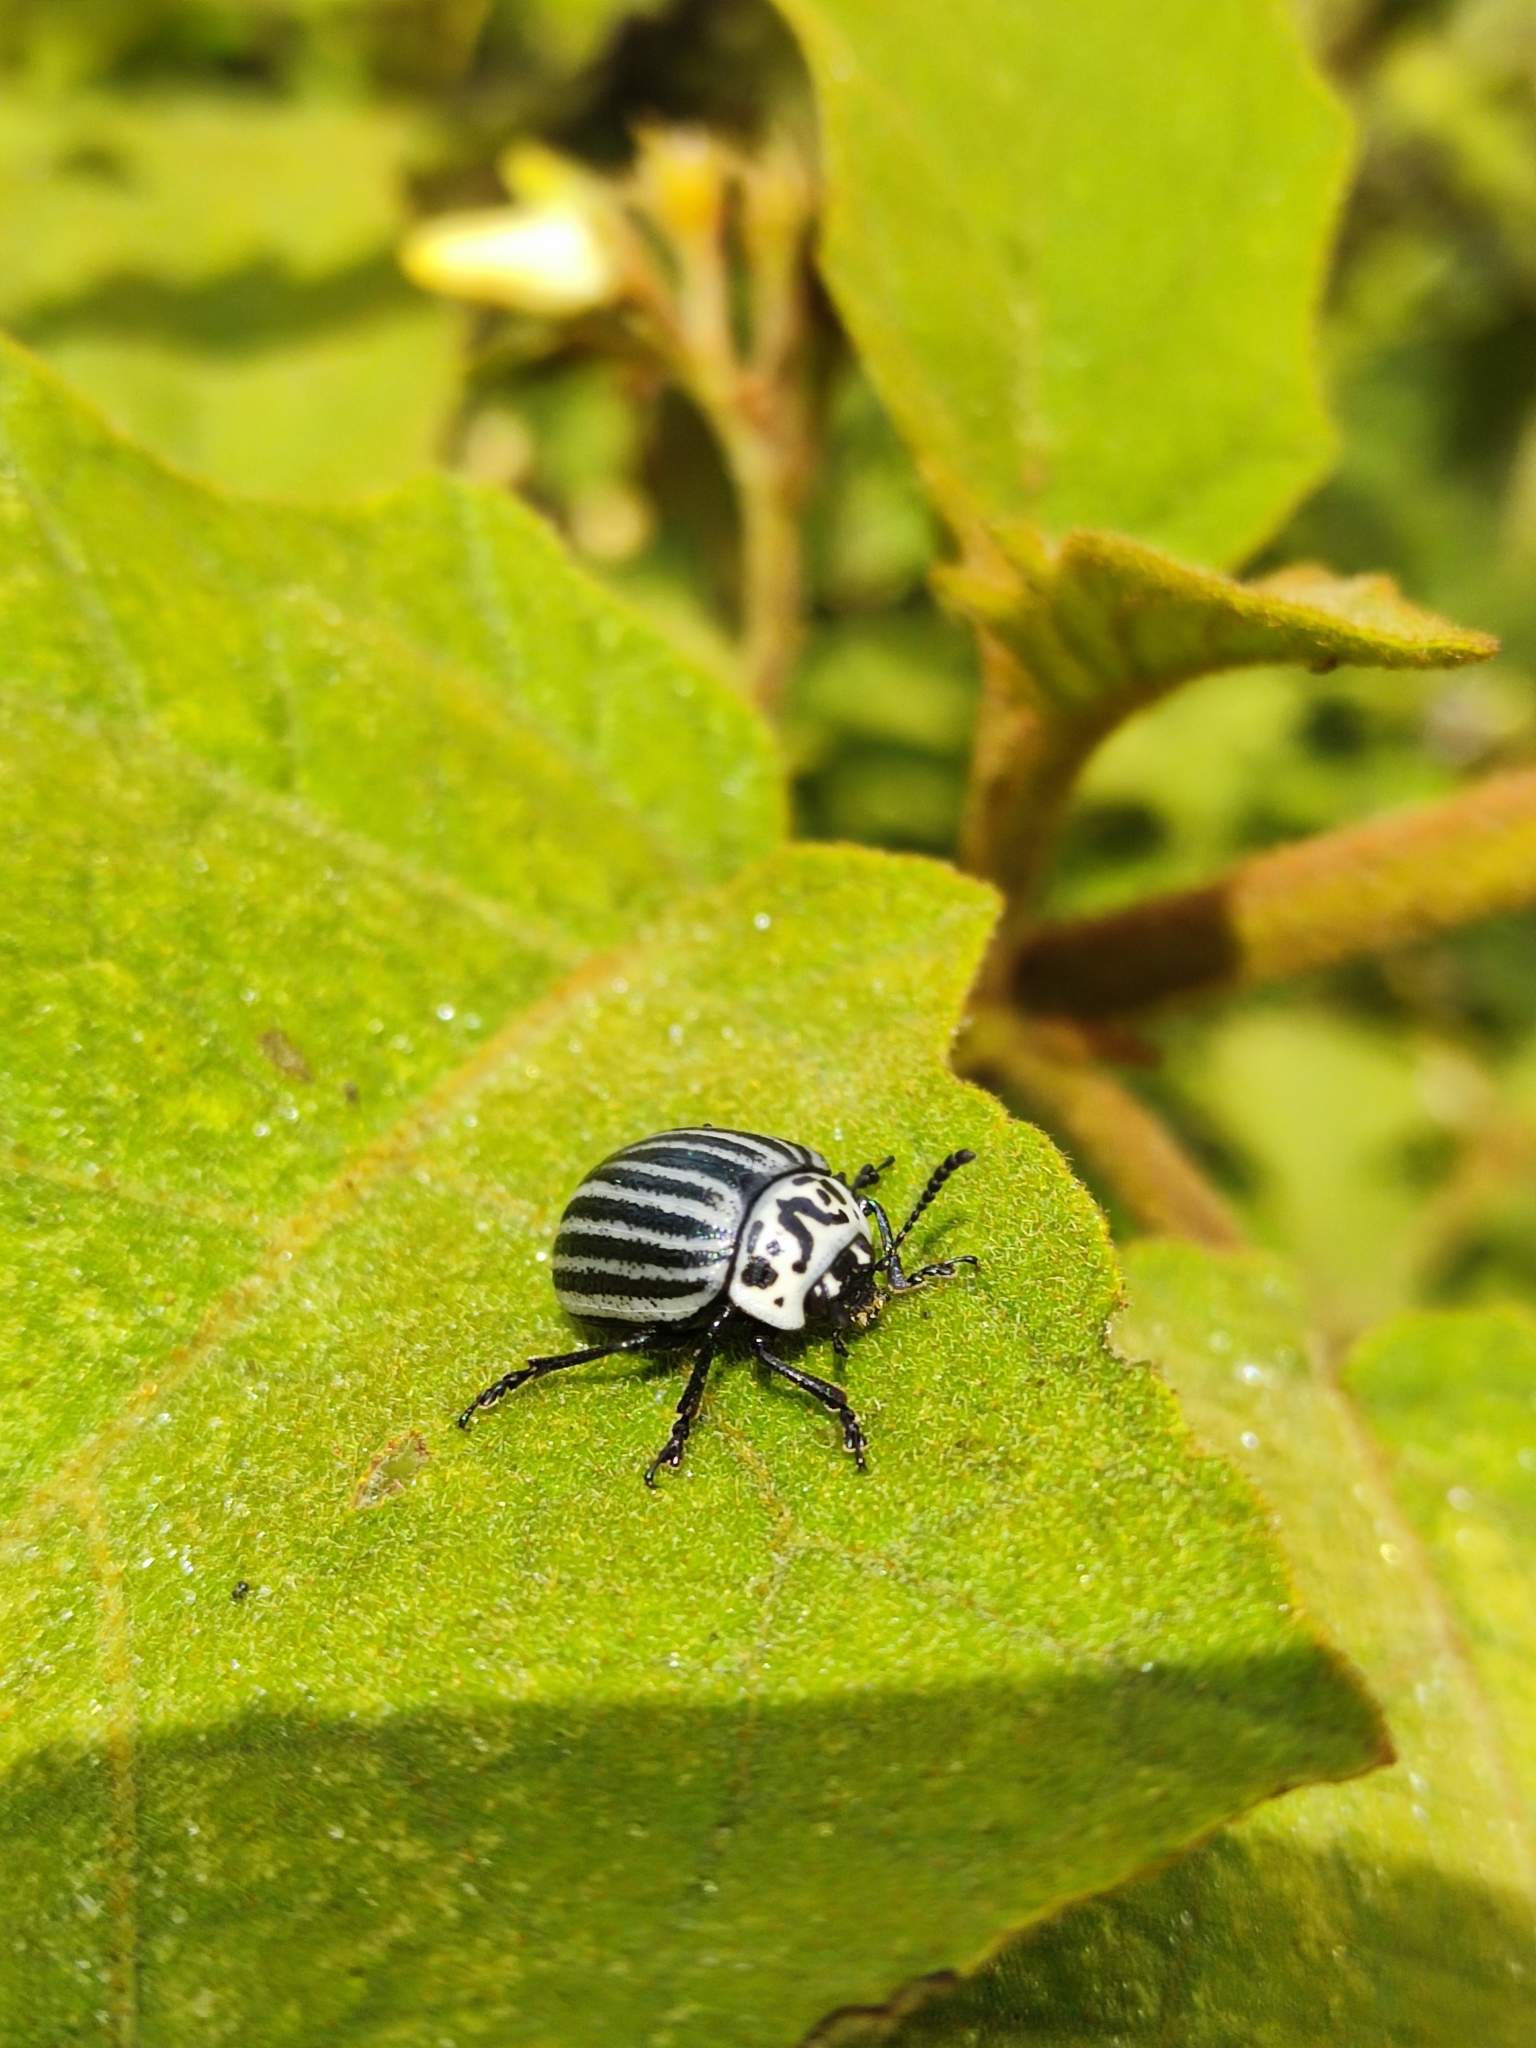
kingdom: Animalia
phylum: Arthropoda
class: Insecta
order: Coleoptera
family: Chrysomelidae
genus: Leptinotarsa
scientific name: Leptinotarsa
